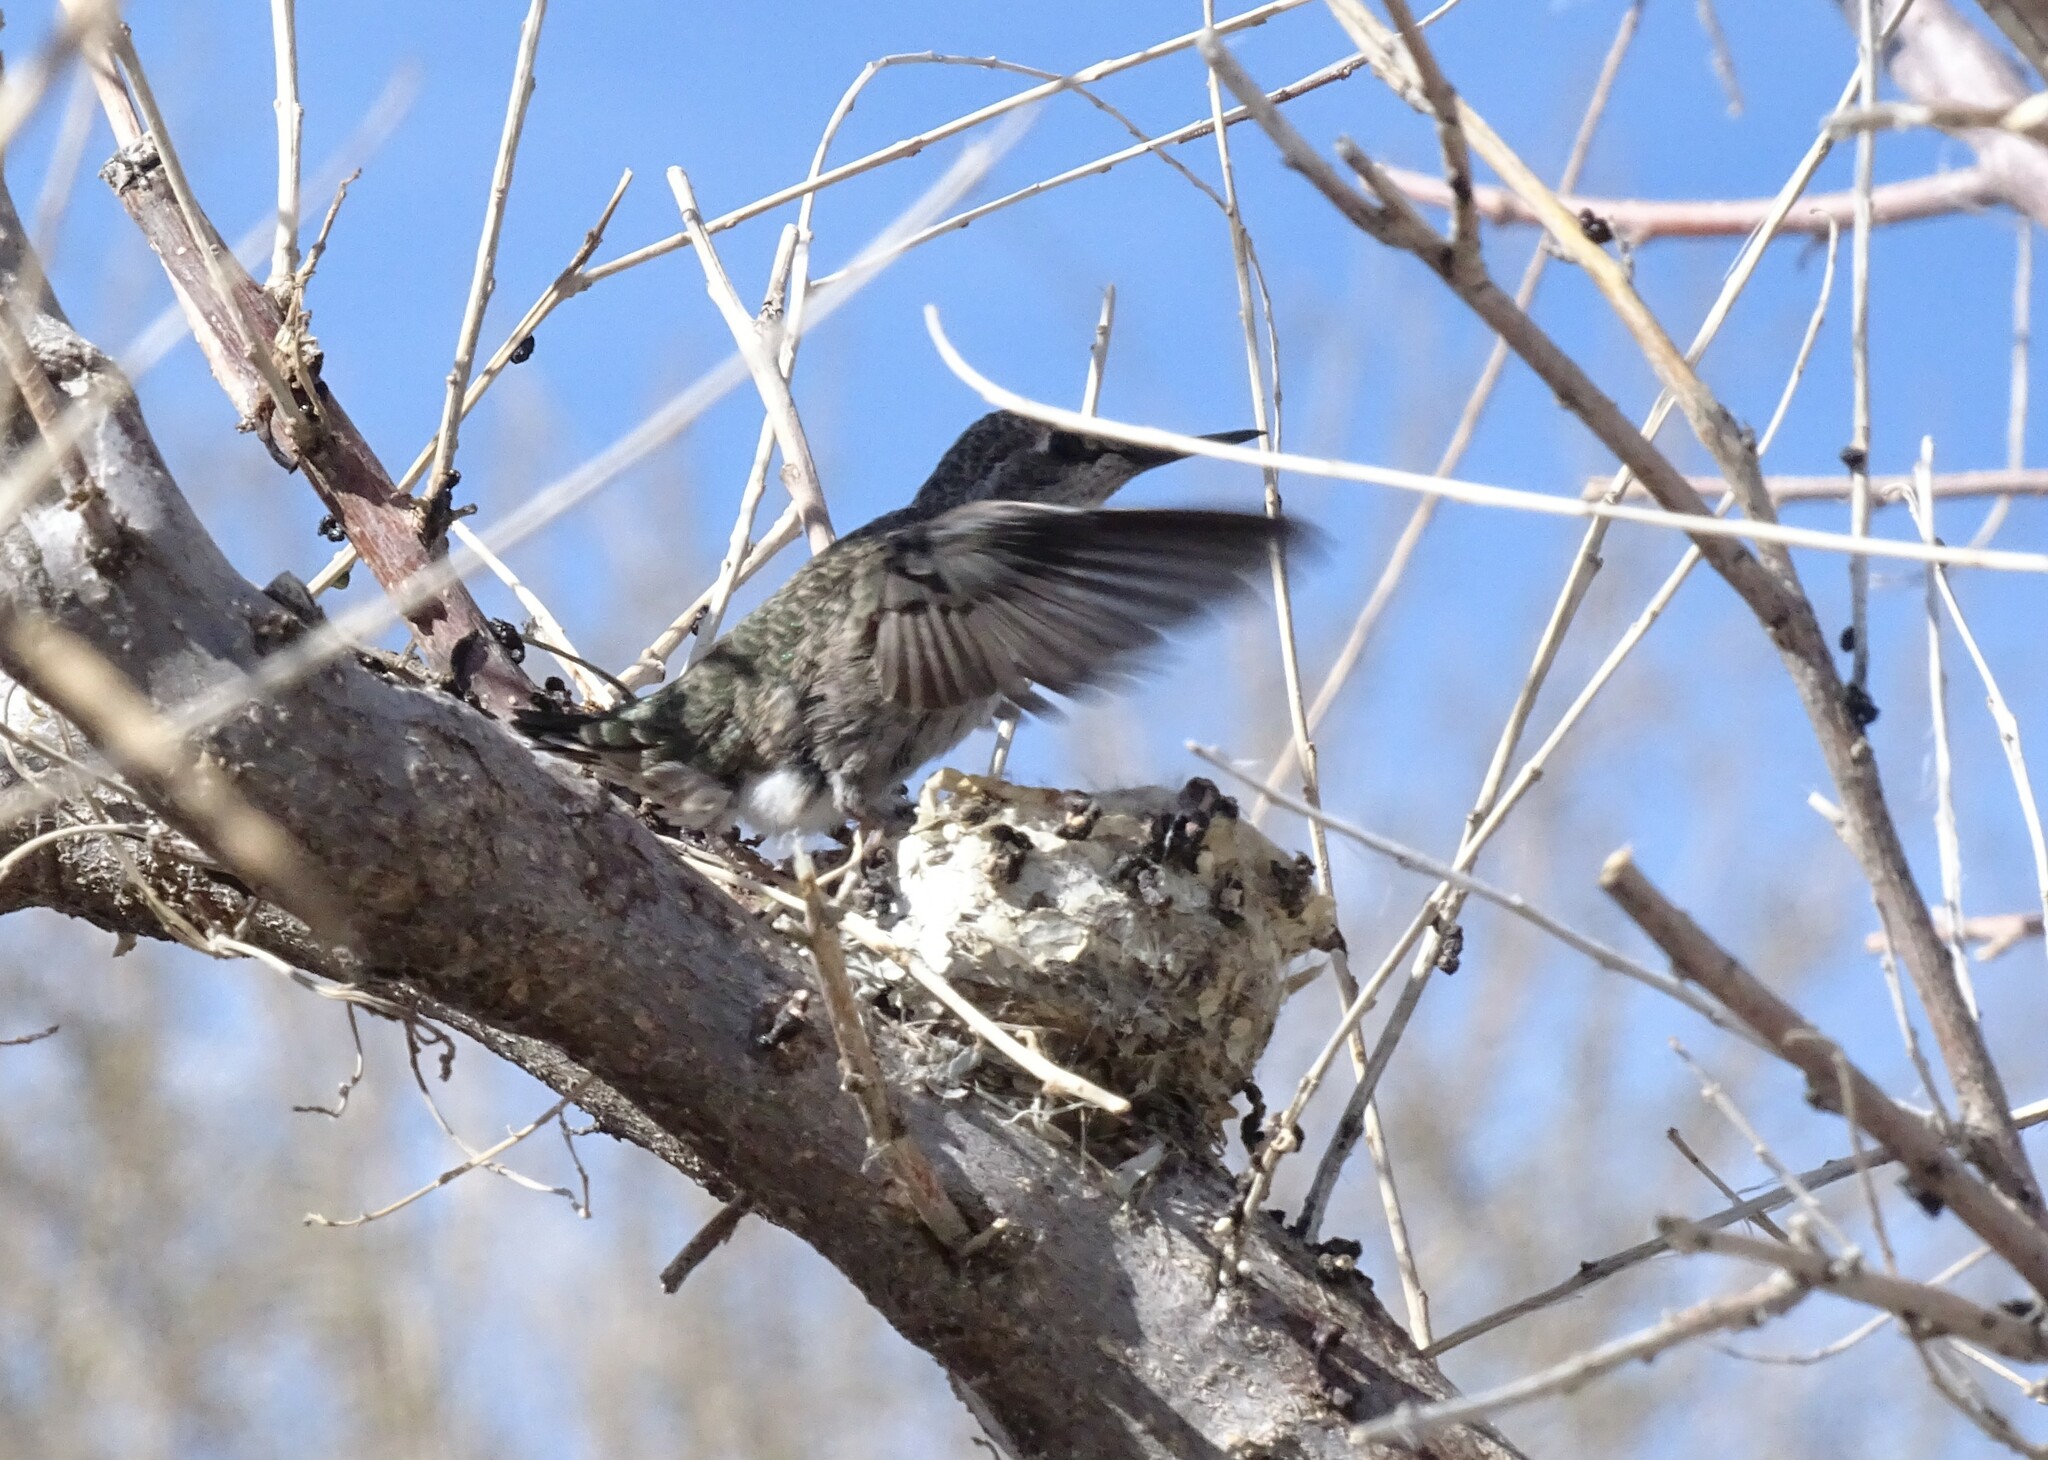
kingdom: Animalia
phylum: Chordata
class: Aves
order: Apodiformes
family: Trochilidae
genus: Calypte
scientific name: Calypte anna
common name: Anna's hummingbird
